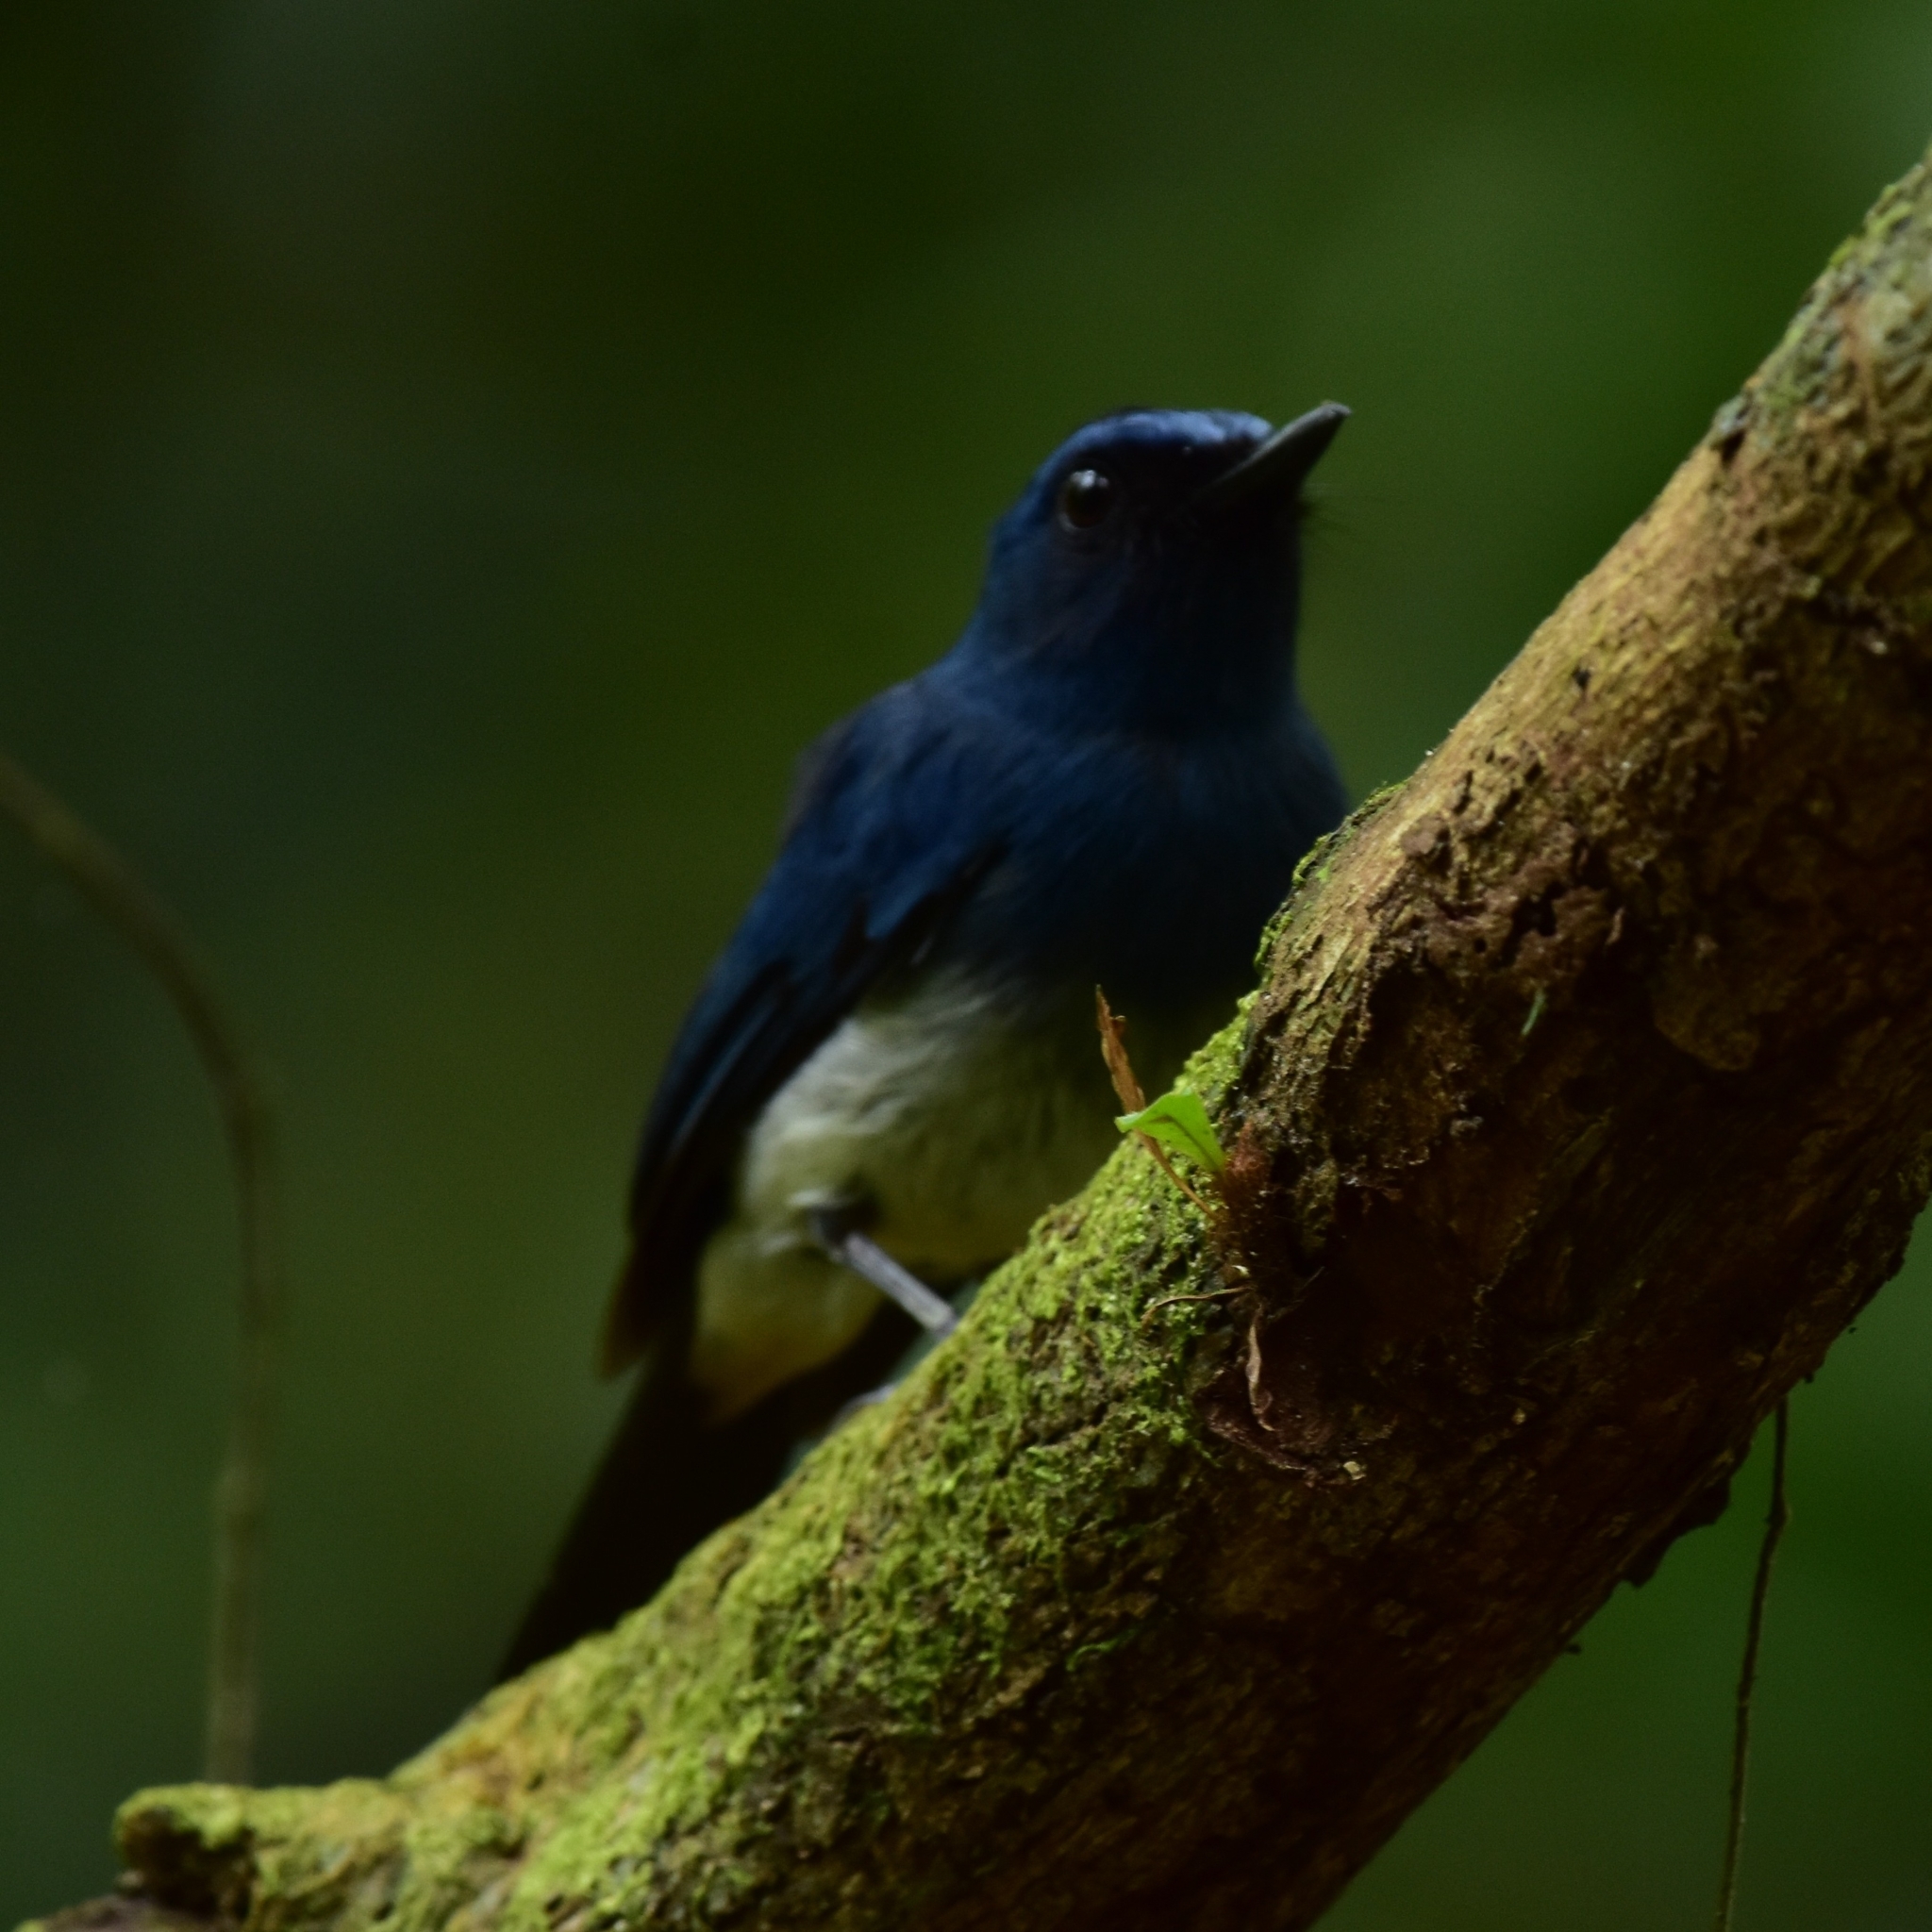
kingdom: Animalia
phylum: Chordata
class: Aves
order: Passeriformes
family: Muscicapidae
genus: Cyornis
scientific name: Cyornis pallidipes
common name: White-bellied blue flycatcher
